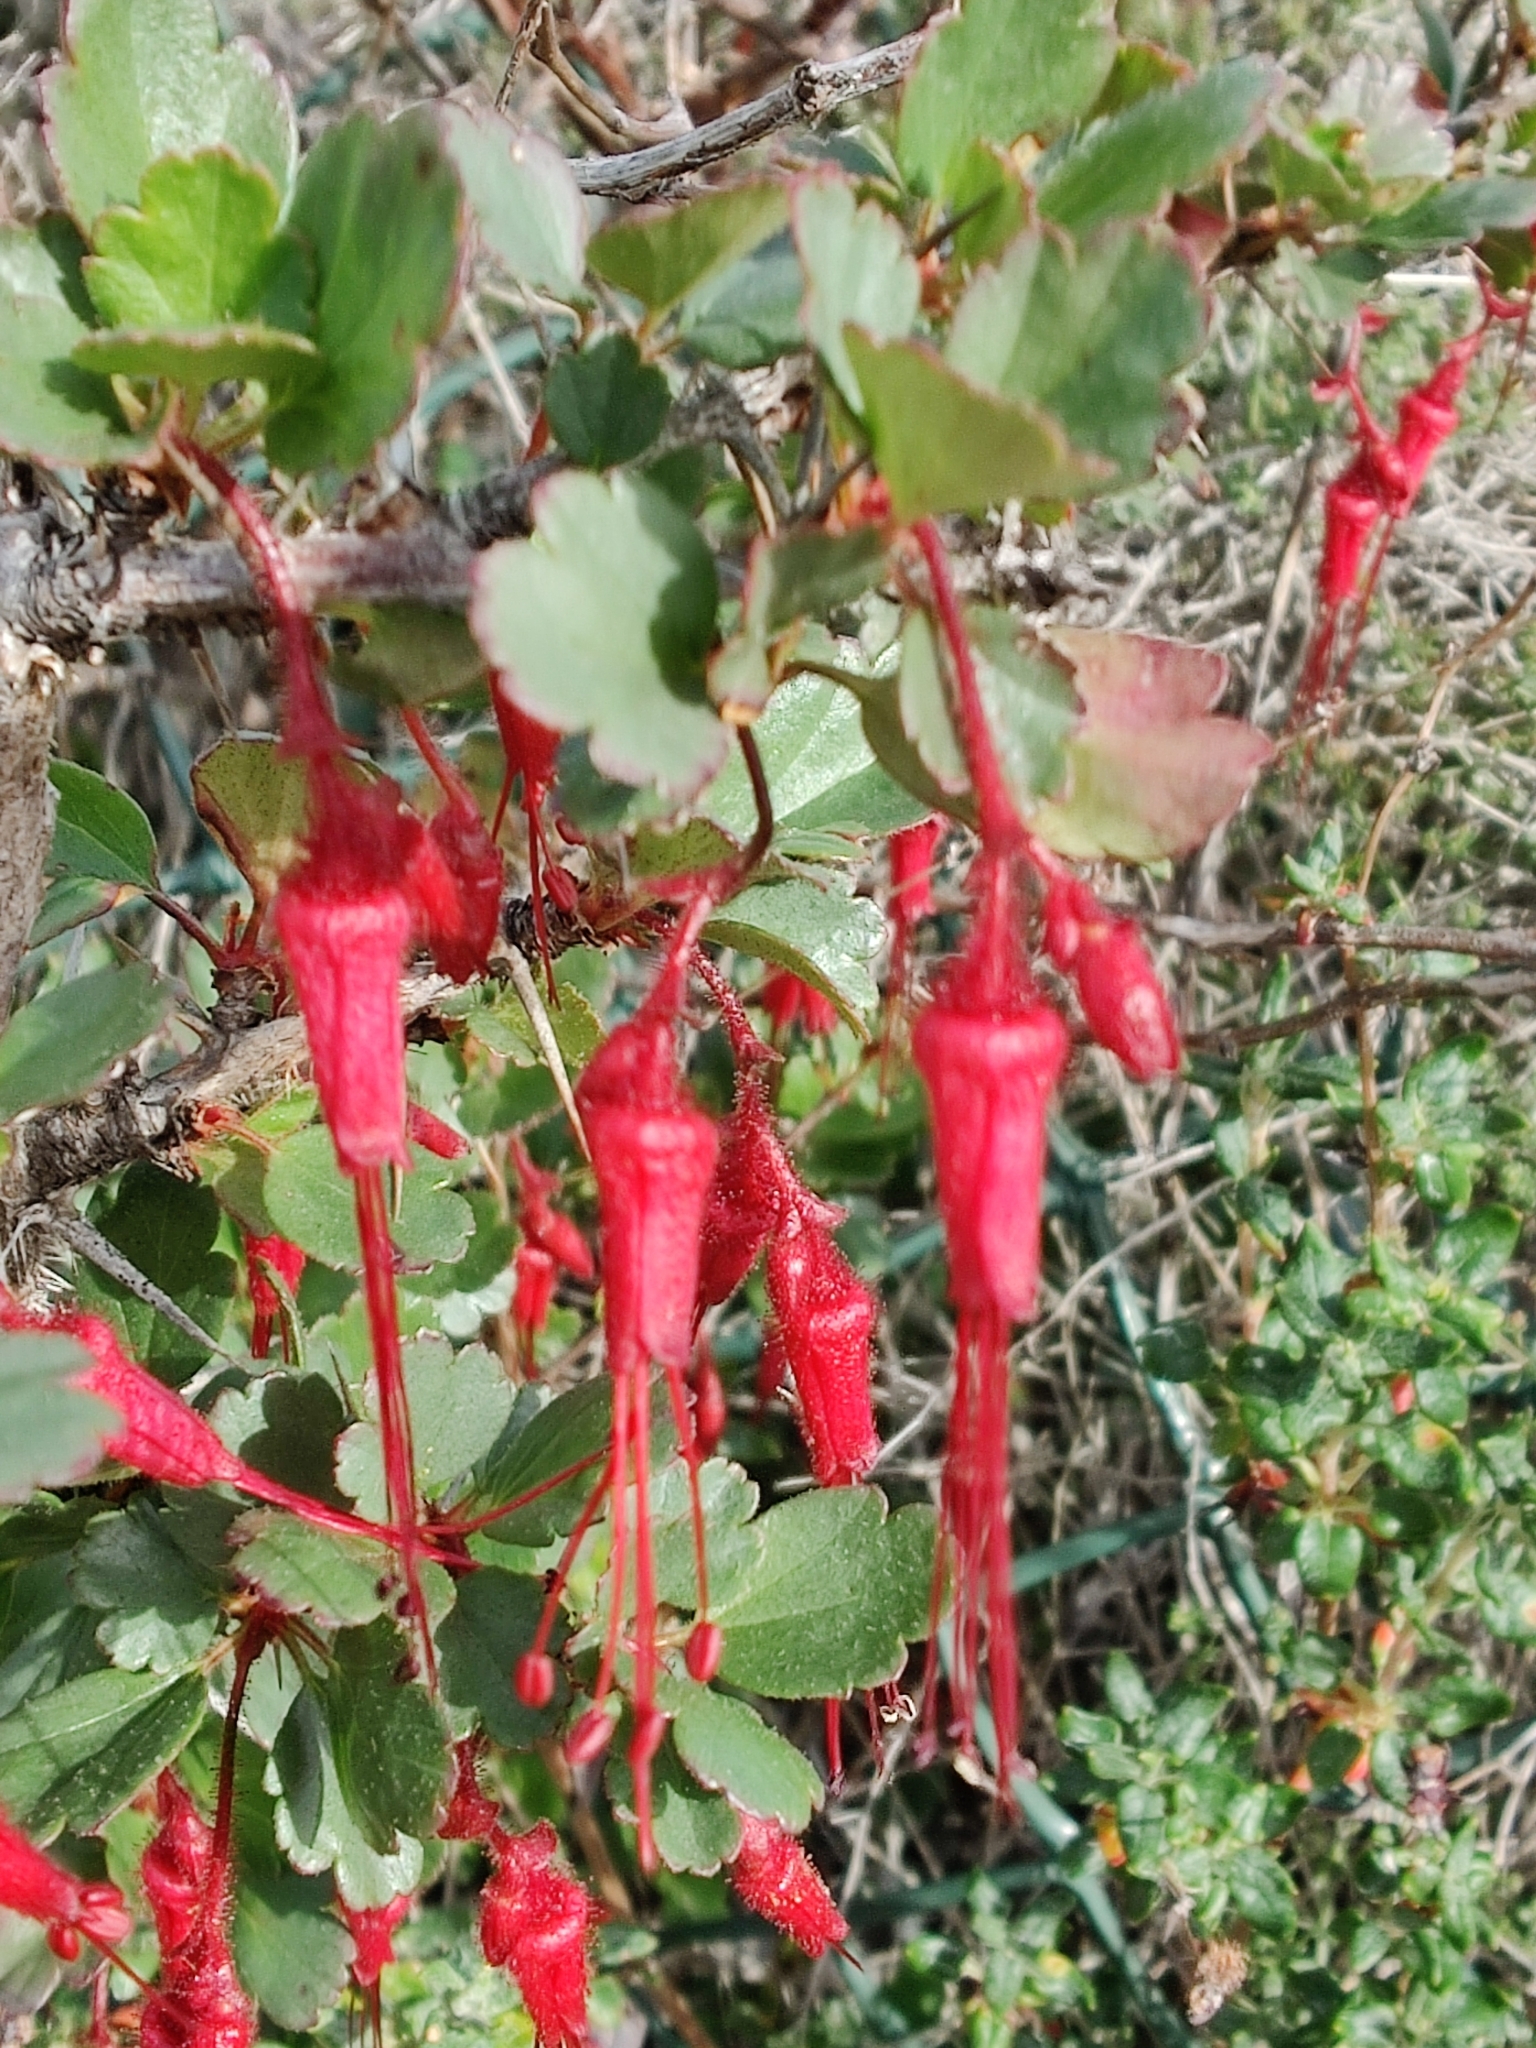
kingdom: Plantae
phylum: Tracheophyta
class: Magnoliopsida
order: Saxifragales
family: Grossulariaceae
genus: Ribes
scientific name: Ribes speciosum
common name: Fuchsia-flower gooseberry
